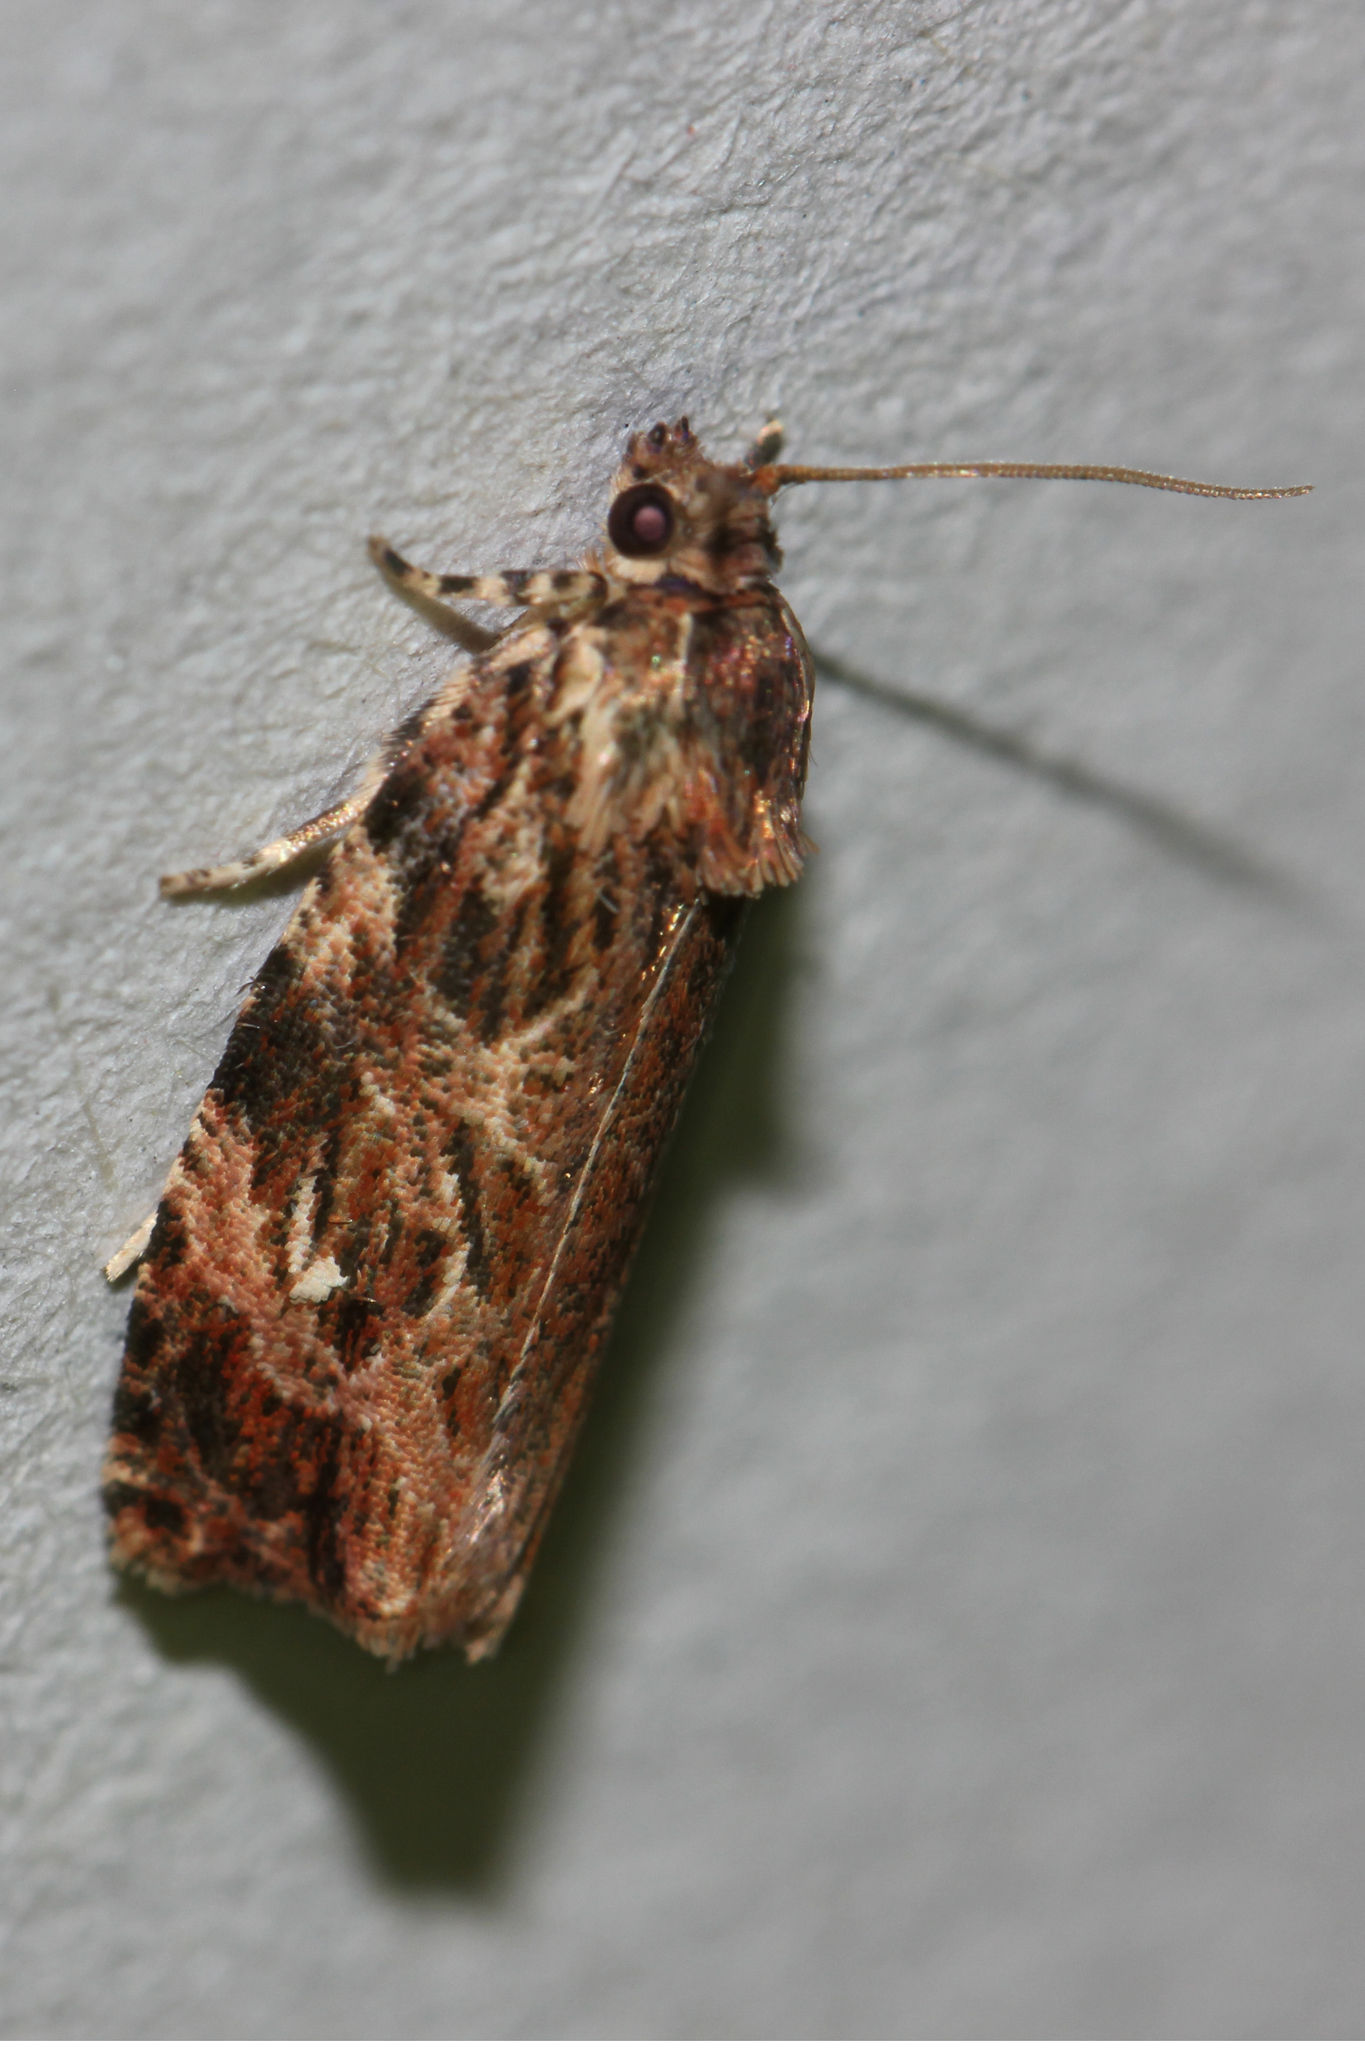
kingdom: Animalia
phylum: Arthropoda
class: Insecta
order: Lepidoptera
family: Tortricidae
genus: Phaecasiophora
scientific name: Phaecasiophora confixana
